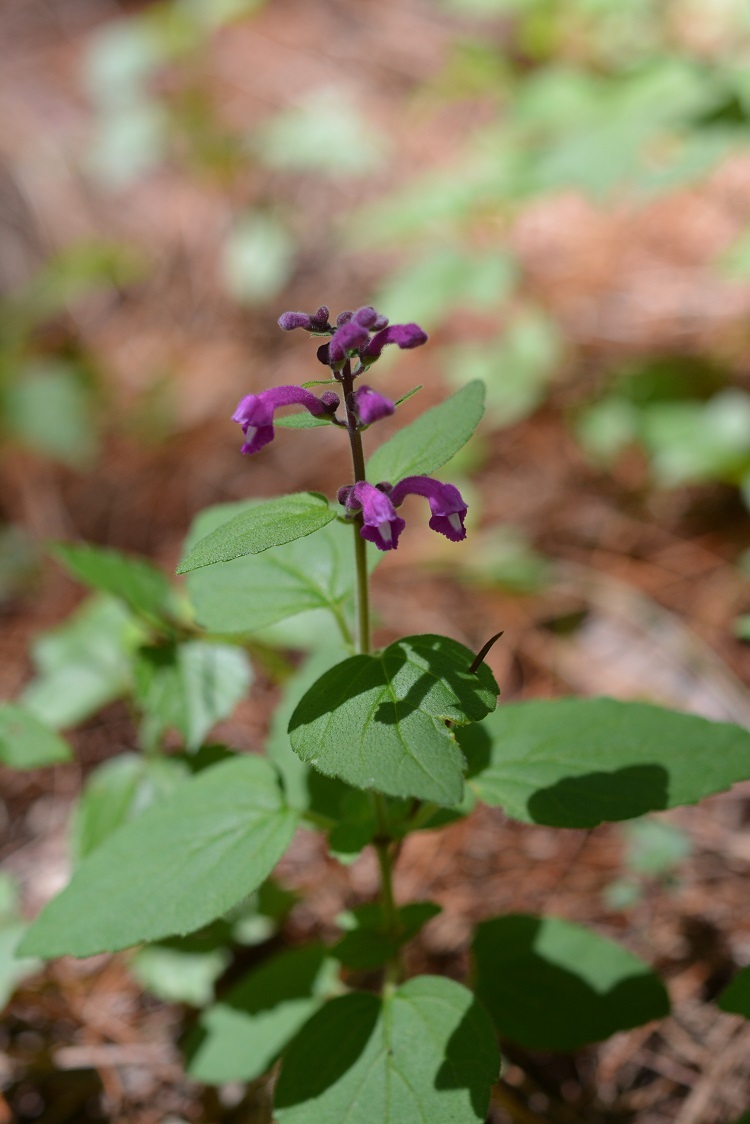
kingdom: Plantae
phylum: Tracheophyta
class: Magnoliopsida
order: Lamiales
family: Lamiaceae
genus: Scutellaria
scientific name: Scutellaria guatemalensis
